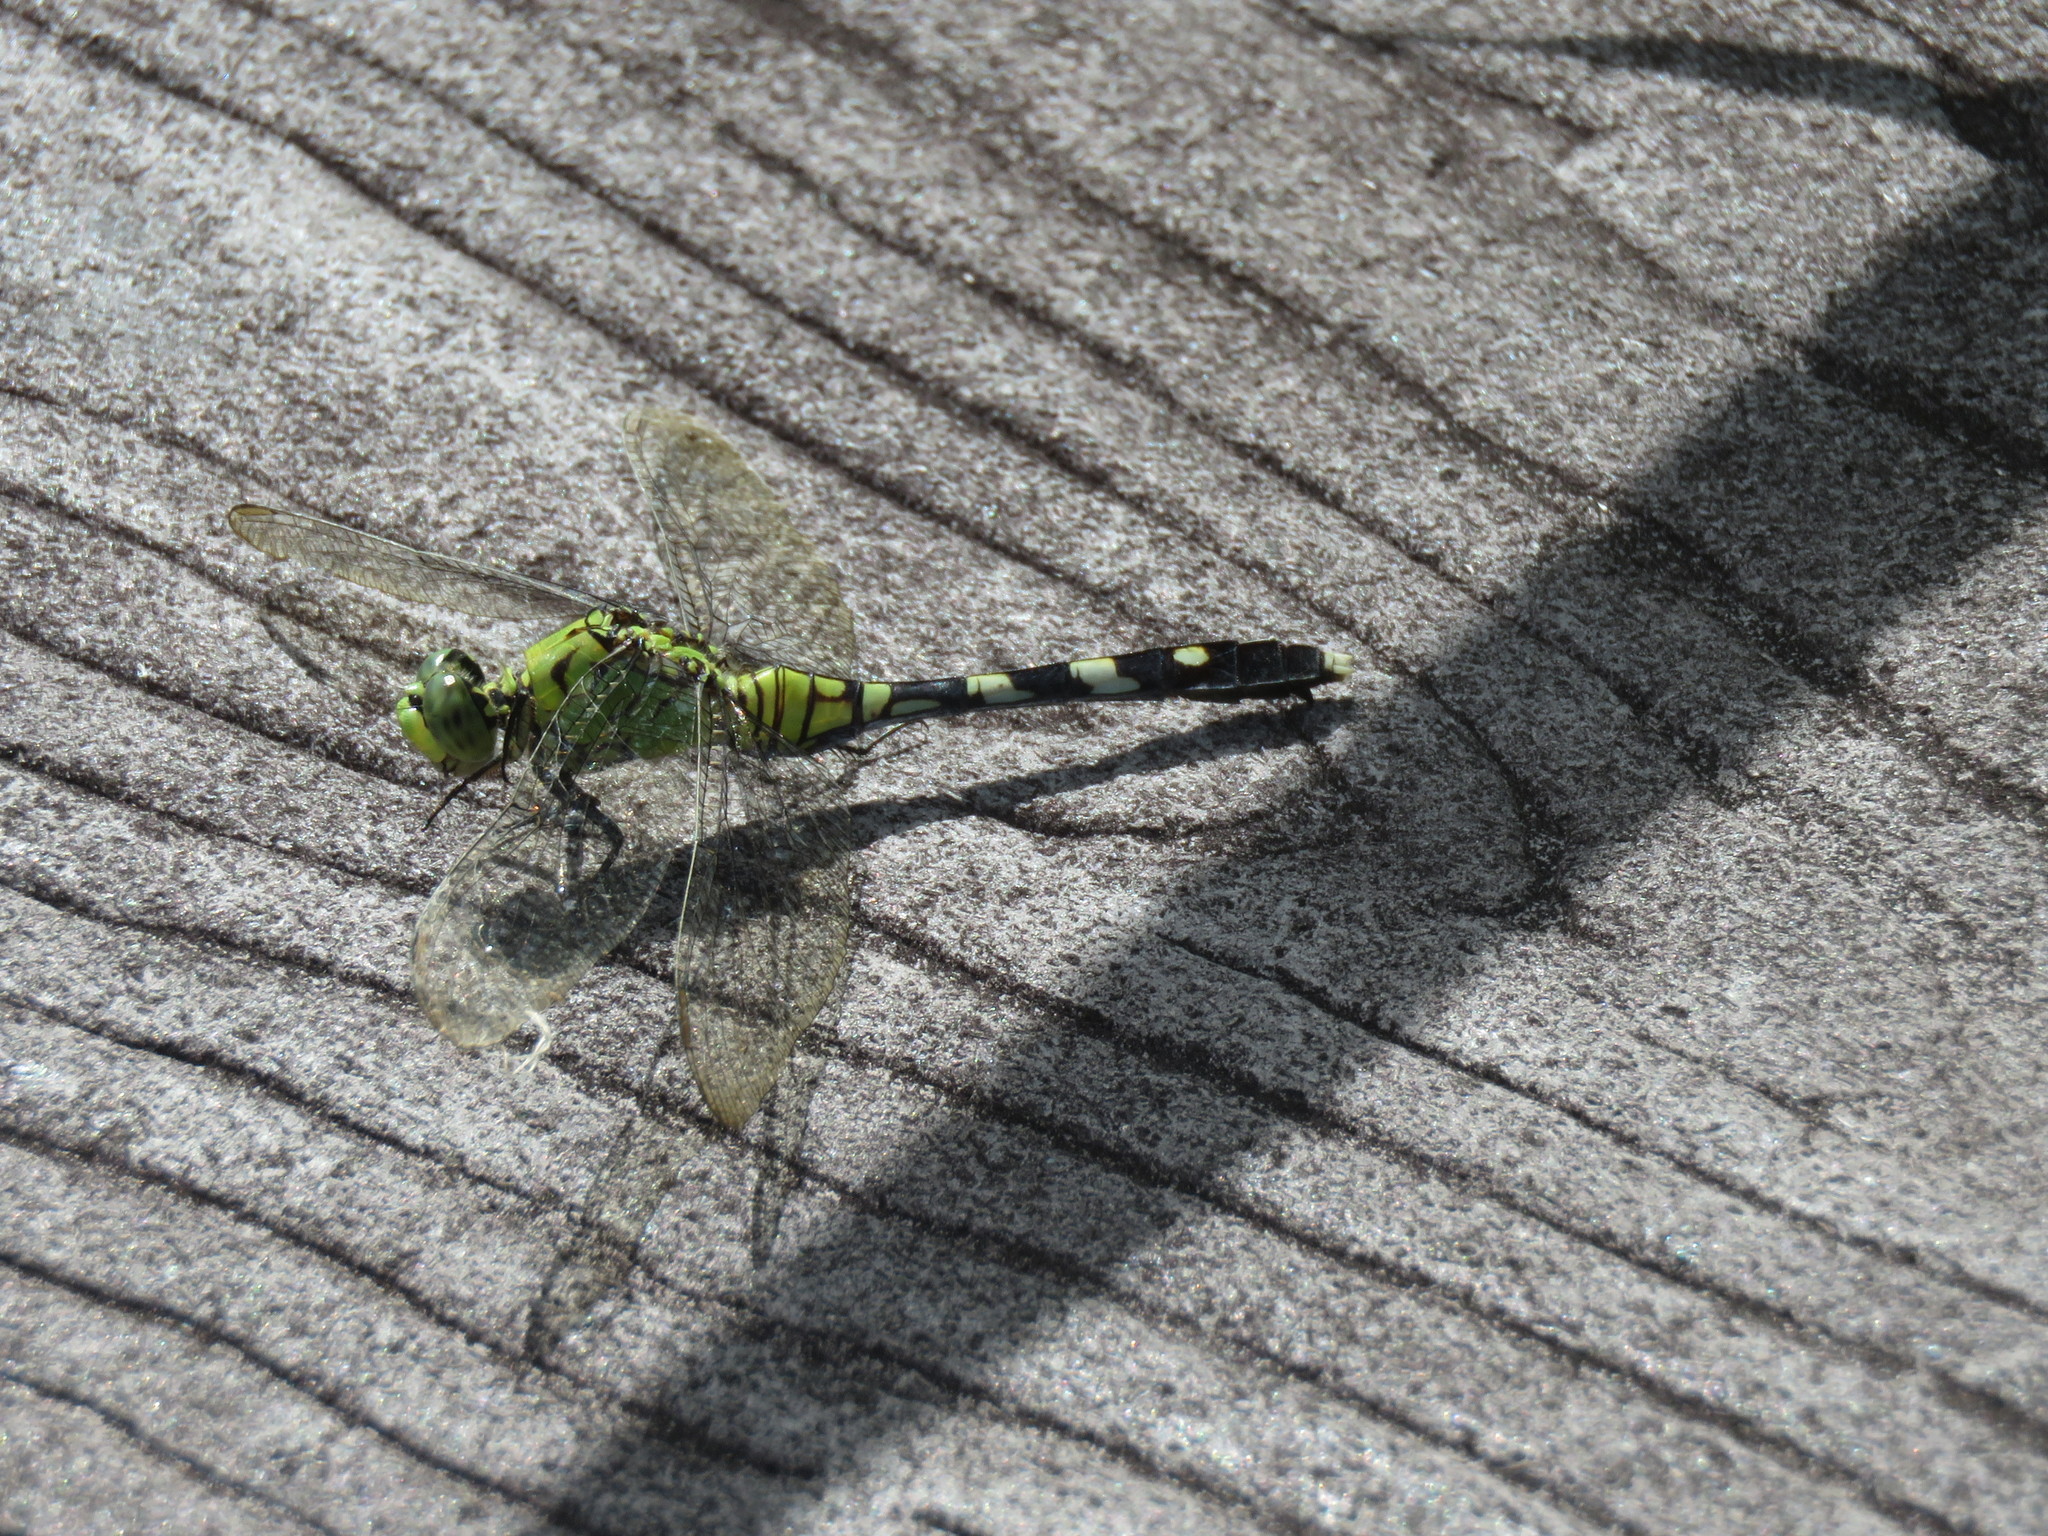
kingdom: Animalia
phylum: Arthropoda
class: Insecta
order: Odonata
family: Libellulidae
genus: Erythemis
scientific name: Erythemis simplicicollis
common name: Eastern pondhawk
